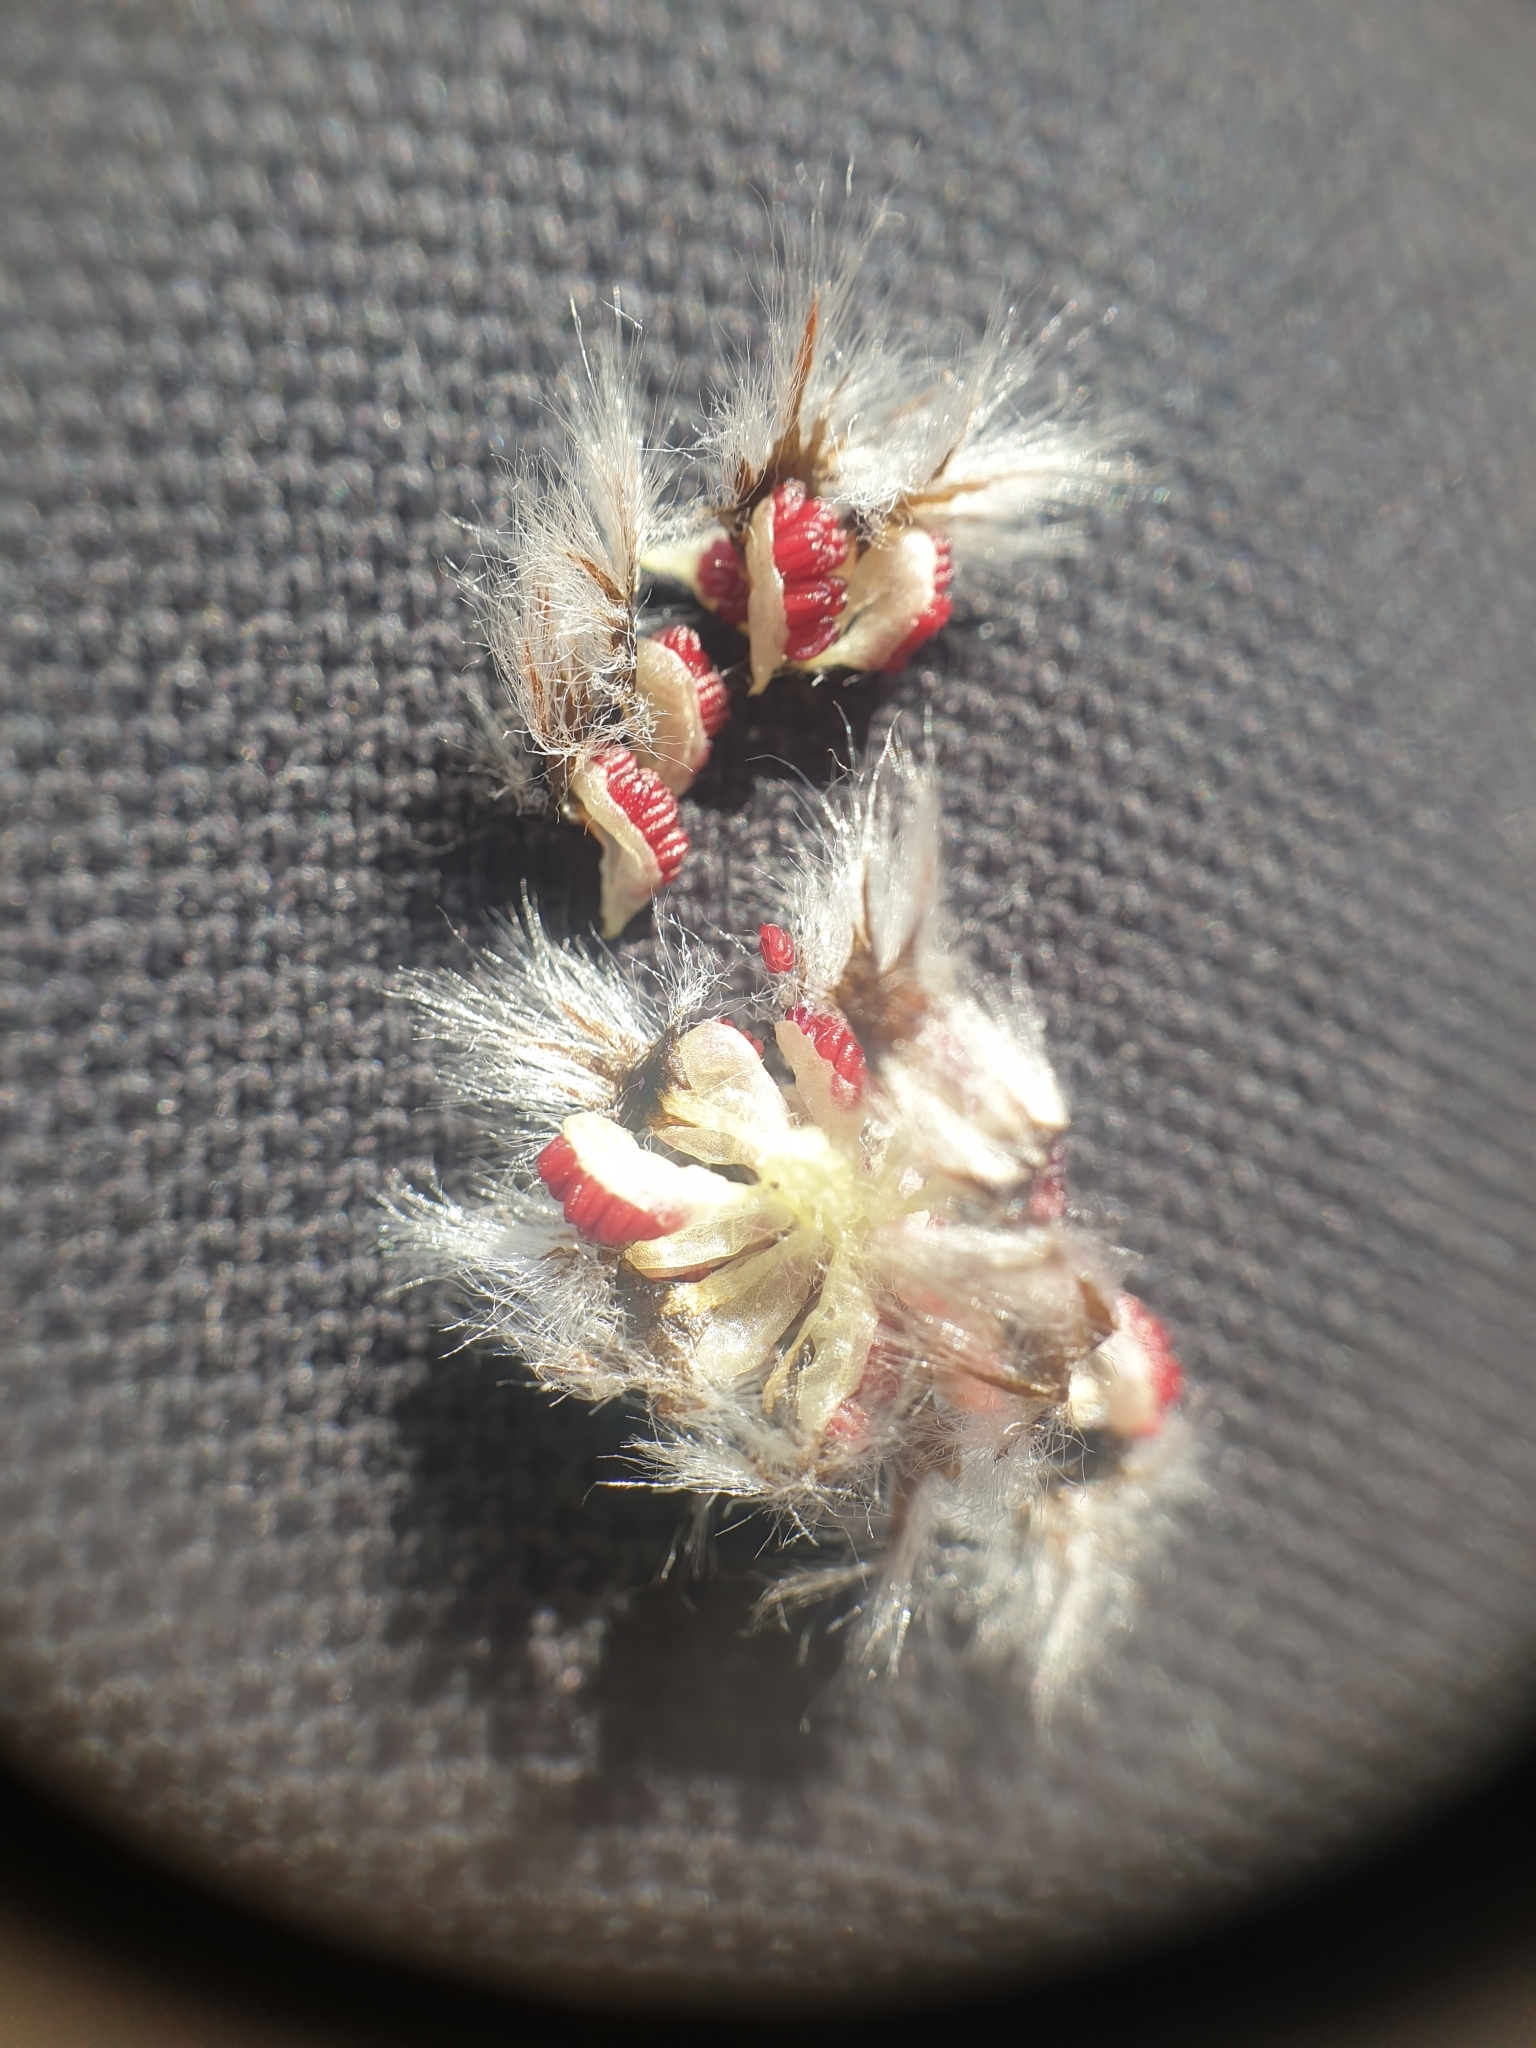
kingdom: Plantae
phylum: Tracheophyta
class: Magnoliopsida
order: Malpighiales
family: Salicaceae
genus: Populus
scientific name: Populus tremuloides
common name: Quaking aspen
